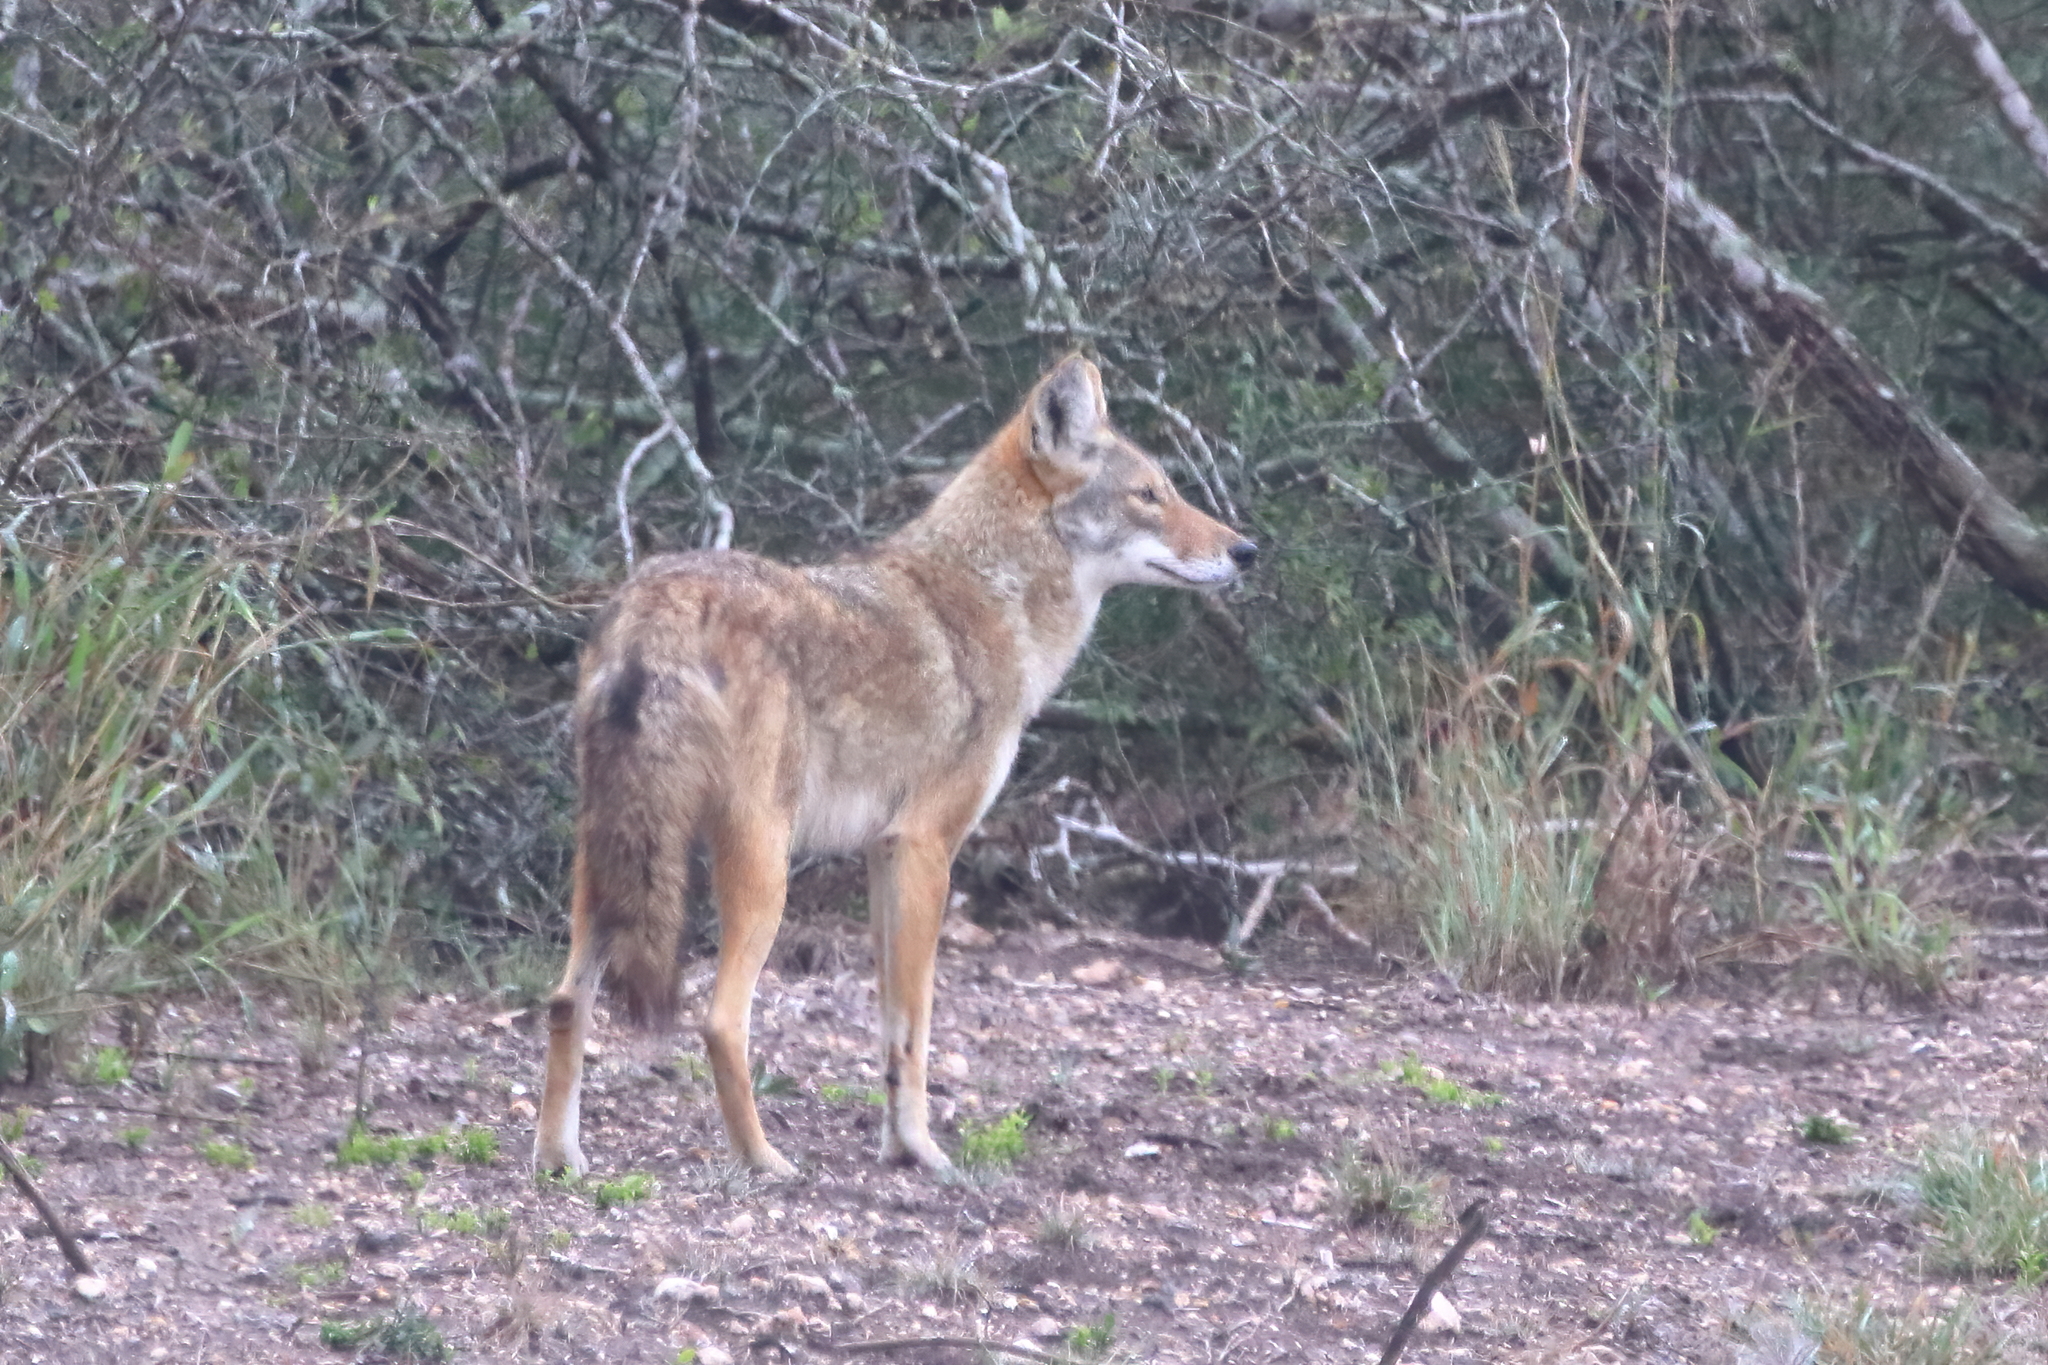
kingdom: Animalia
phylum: Chordata
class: Mammalia
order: Carnivora
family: Canidae
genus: Canis
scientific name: Canis latrans
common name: Coyote
